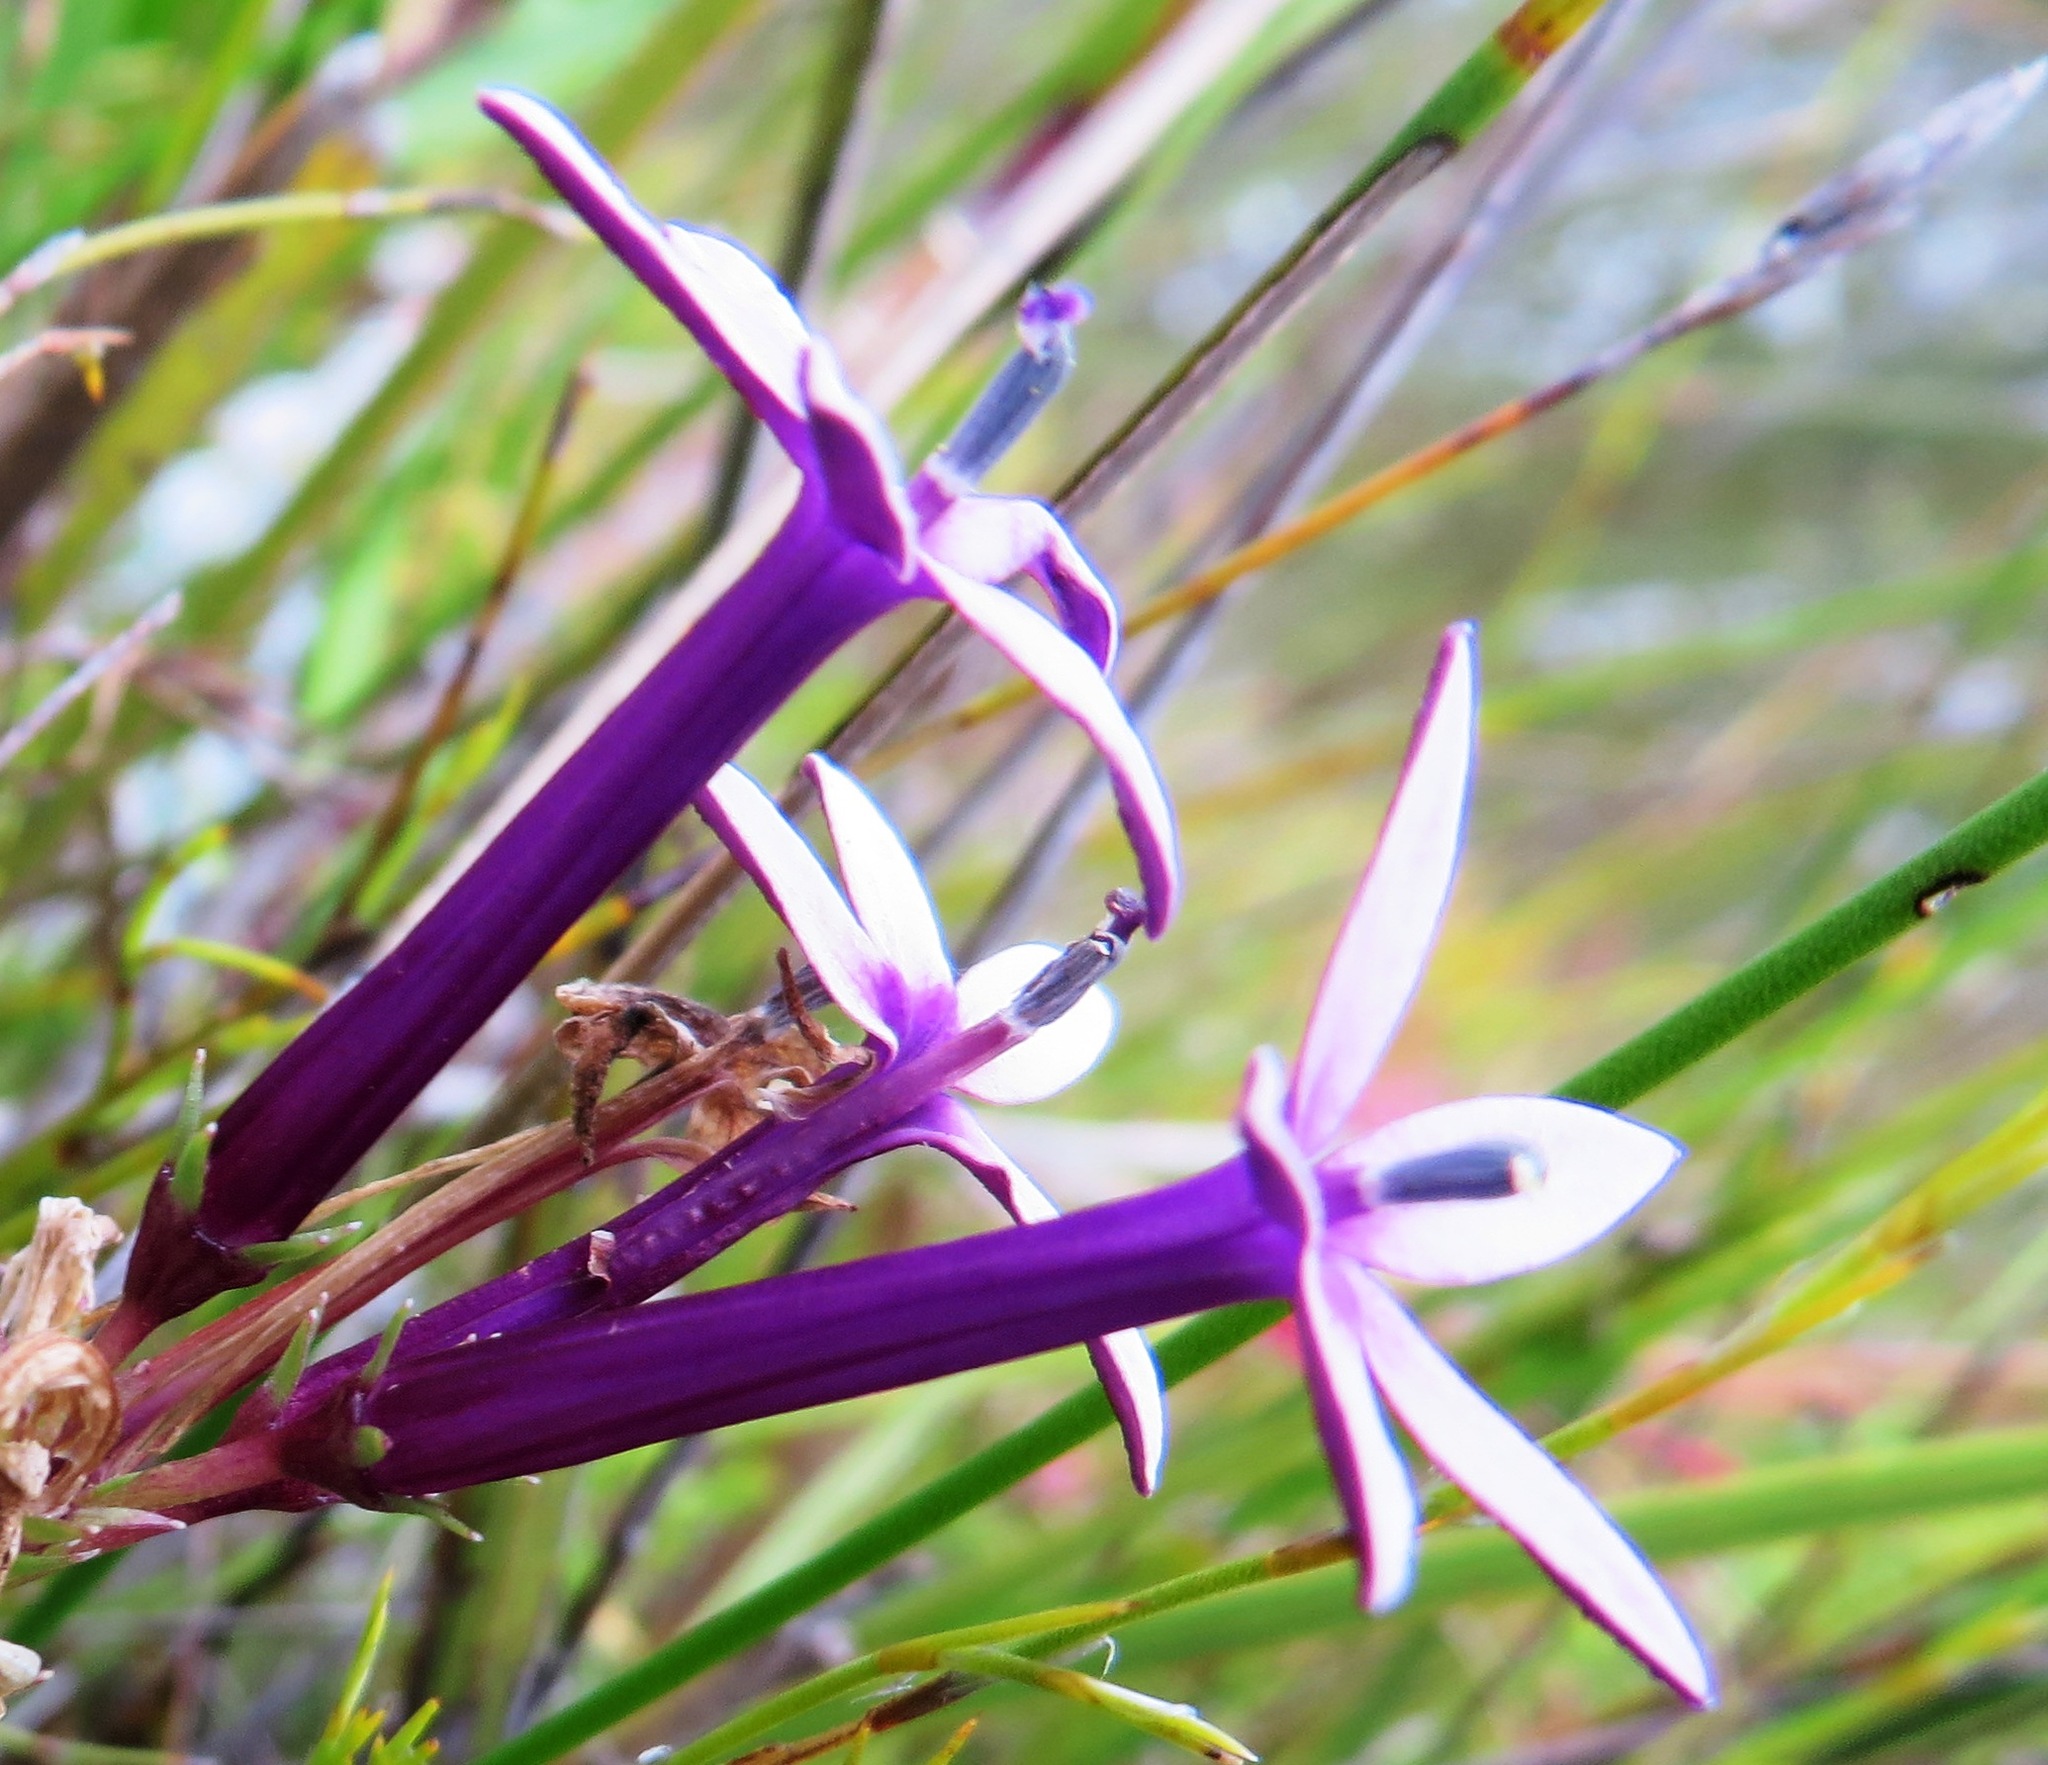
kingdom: Plantae
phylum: Tracheophyta
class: Magnoliopsida
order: Asterales
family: Campanulaceae
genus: Lobelia
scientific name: Lobelia stenosiphon
